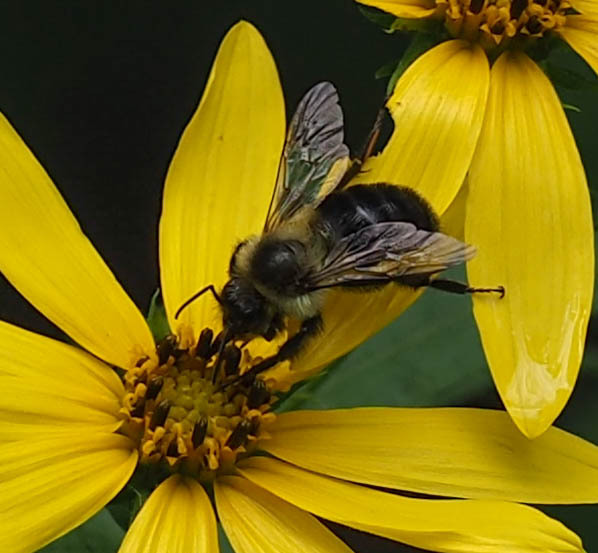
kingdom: Animalia
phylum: Arthropoda
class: Insecta
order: Hymenoptera
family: Apidae
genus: Bombus
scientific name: Bombus impatiens
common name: Common eastern bumble bee
